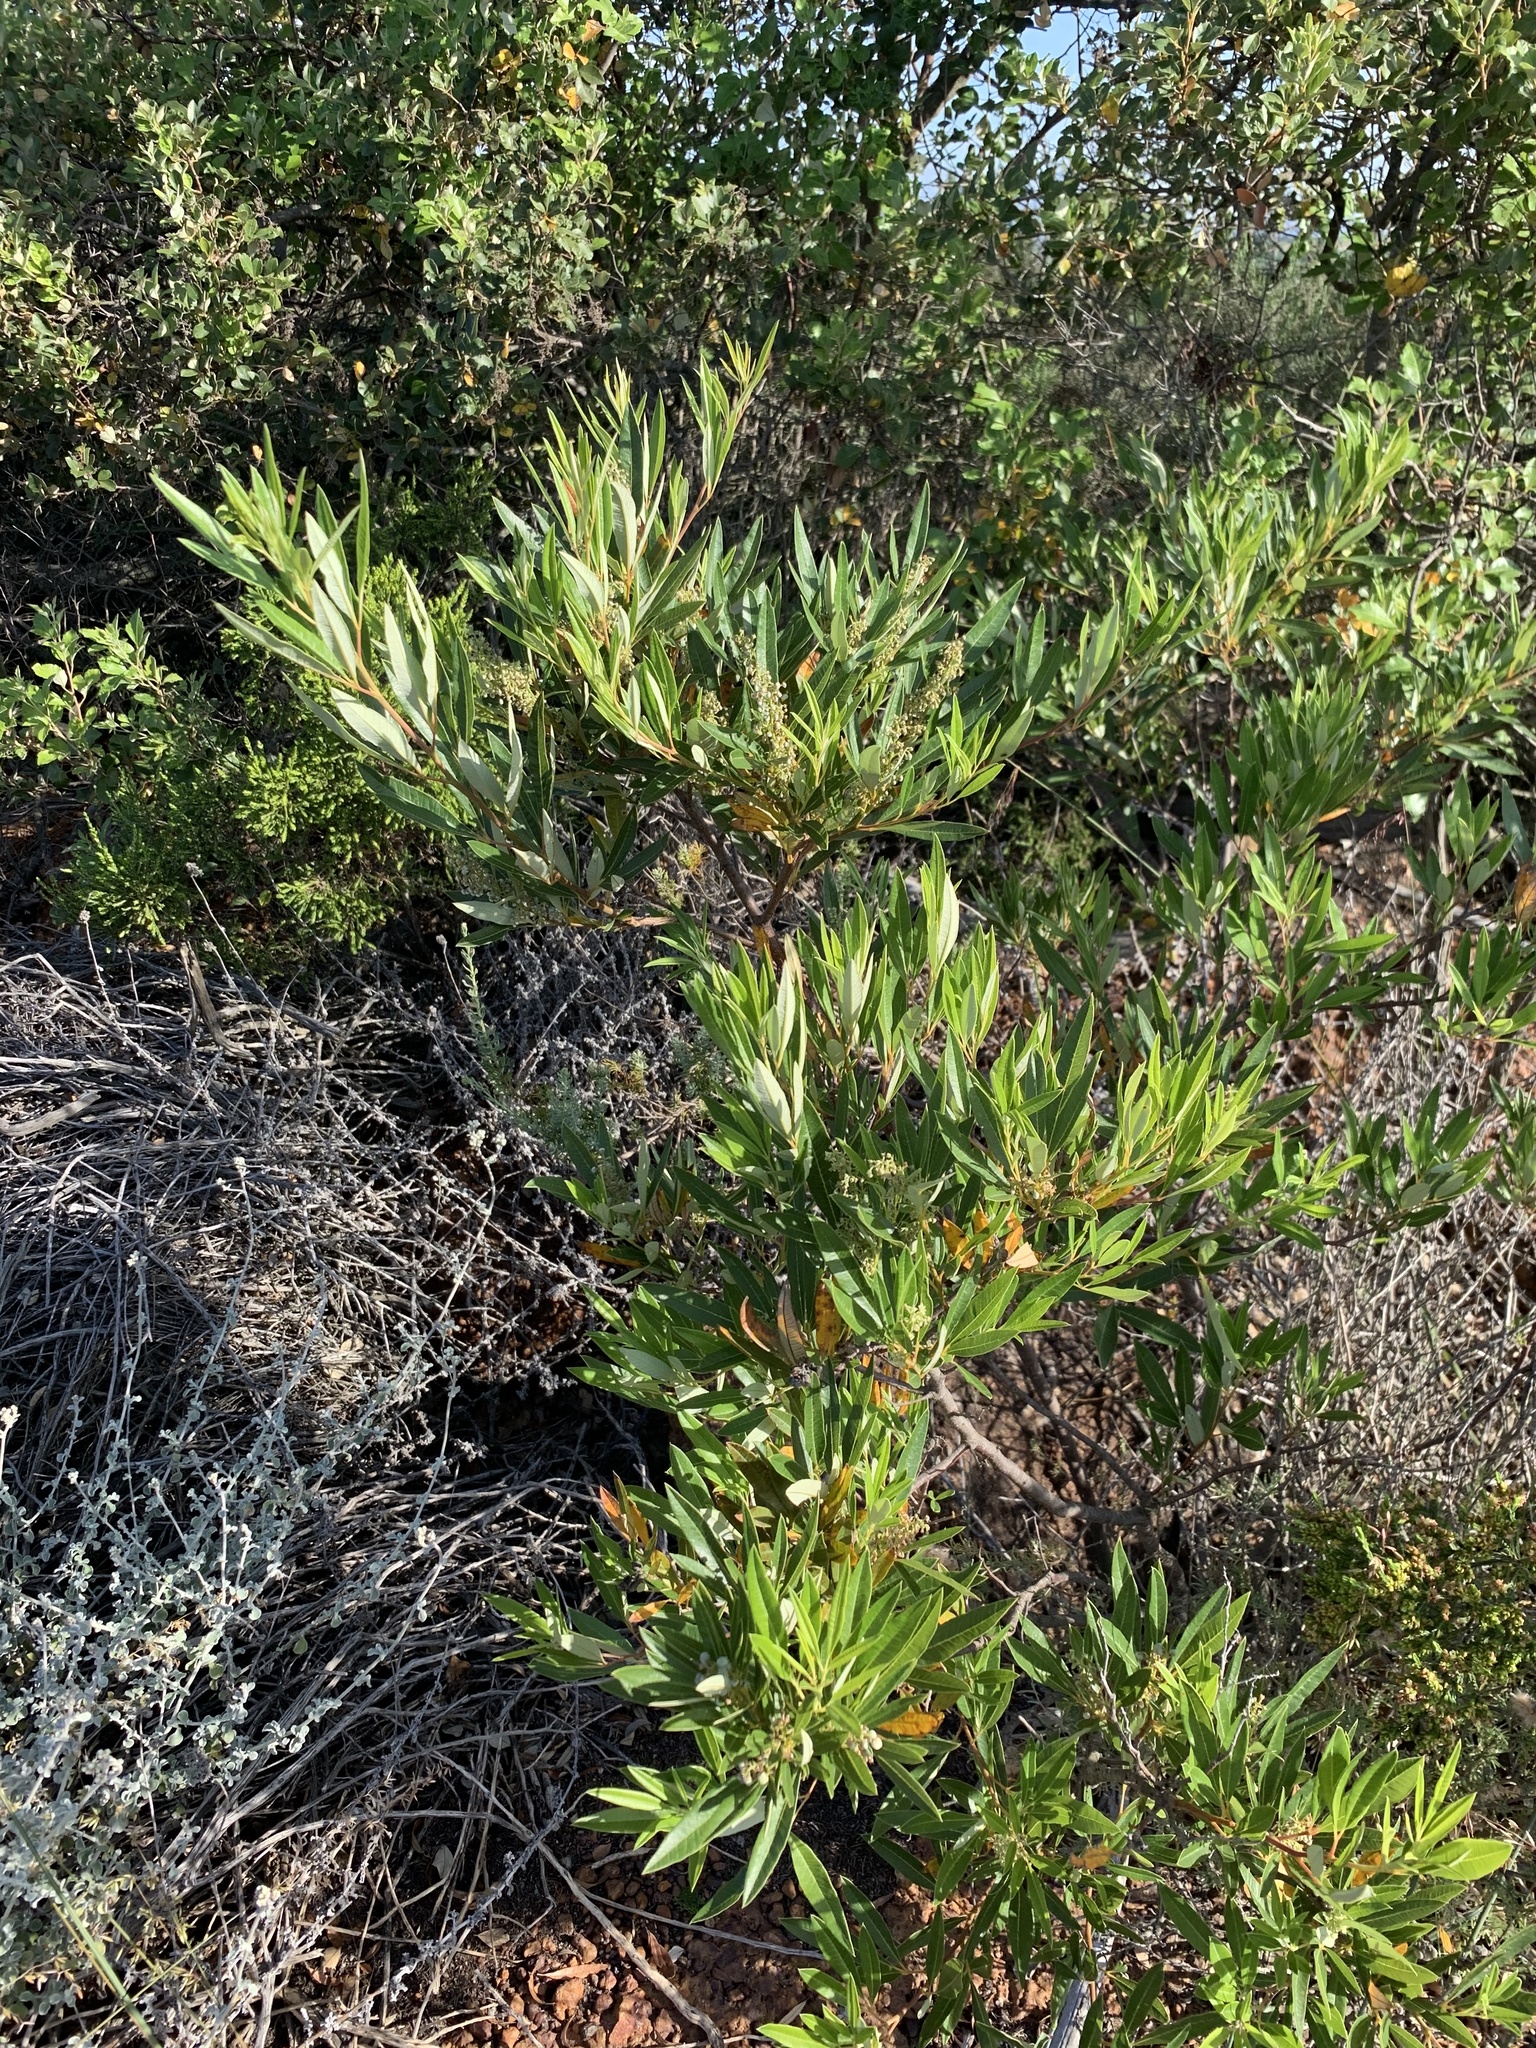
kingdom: Plantae
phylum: Tracheophyta
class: Magnoliopsida
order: Sapindales
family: Anacardiaceae
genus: Searsia
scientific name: Searsia angustifolia
